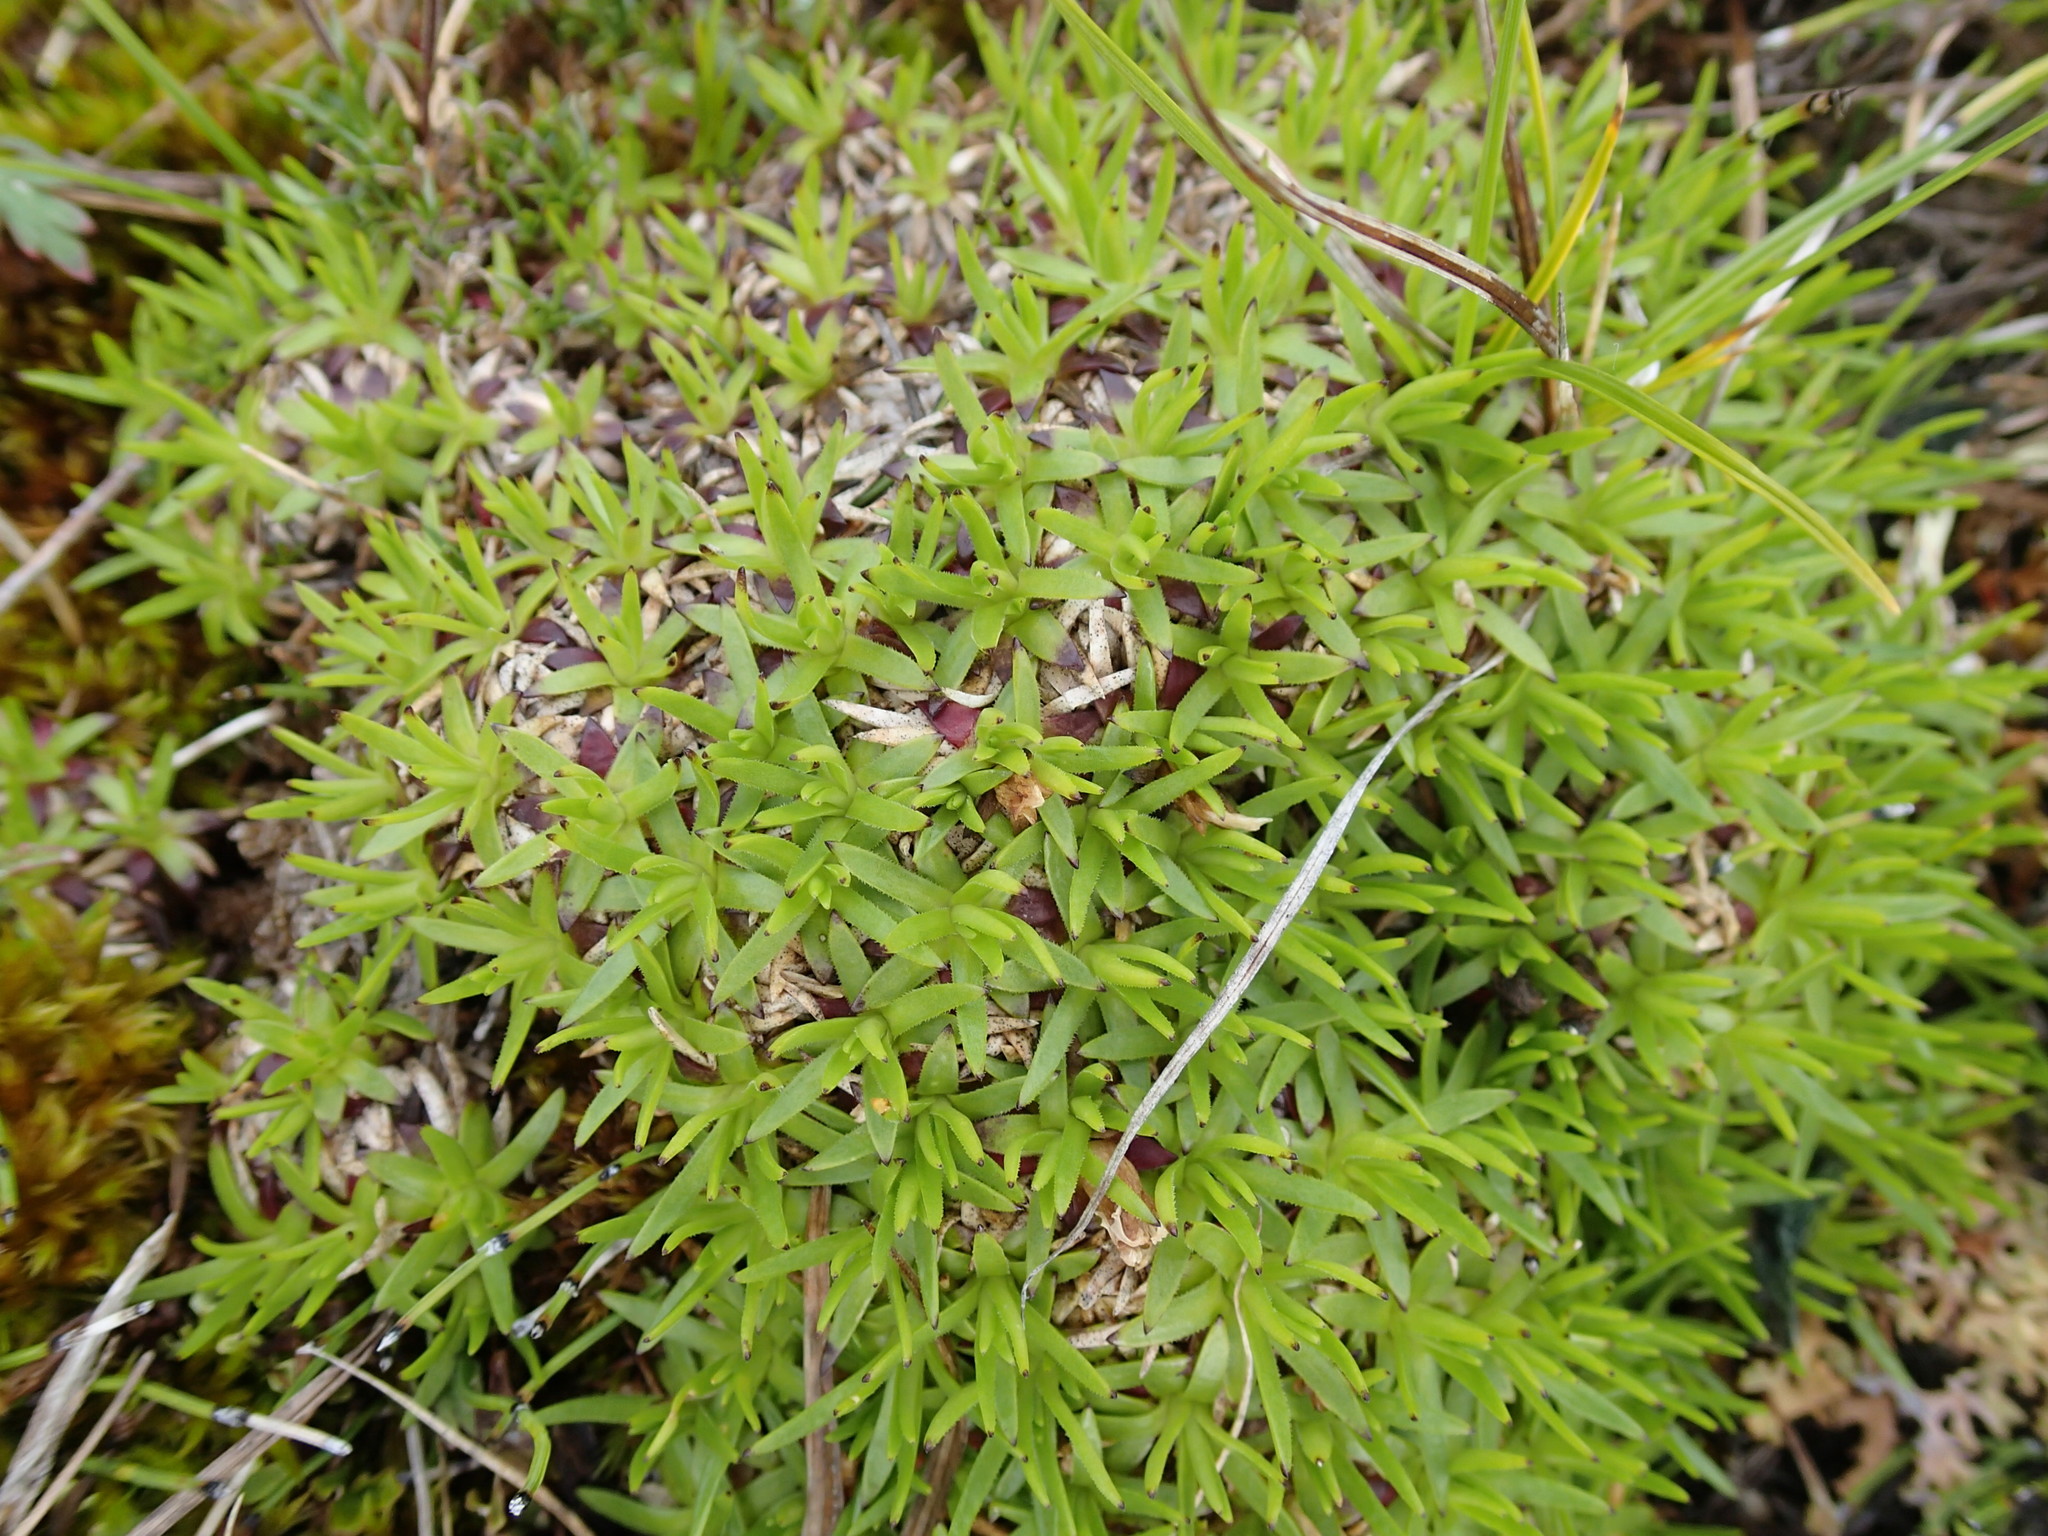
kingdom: Plantae
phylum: Tracheophyta
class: Magnoliopsida
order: Caryophyllales
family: Caryophyllaceae
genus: Silene
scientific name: Silene acaulis
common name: Moss campion
